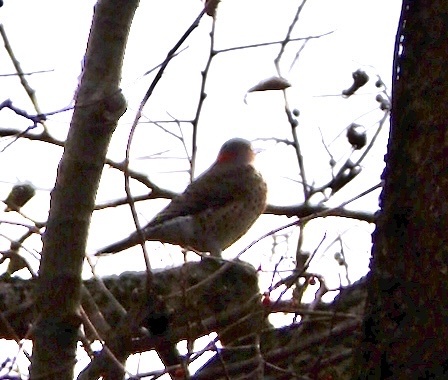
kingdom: Animalia
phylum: Chordata
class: Aves
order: Piciformes
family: Picidae
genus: Colaptes
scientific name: Colaptes auratus
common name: Northern flicker
